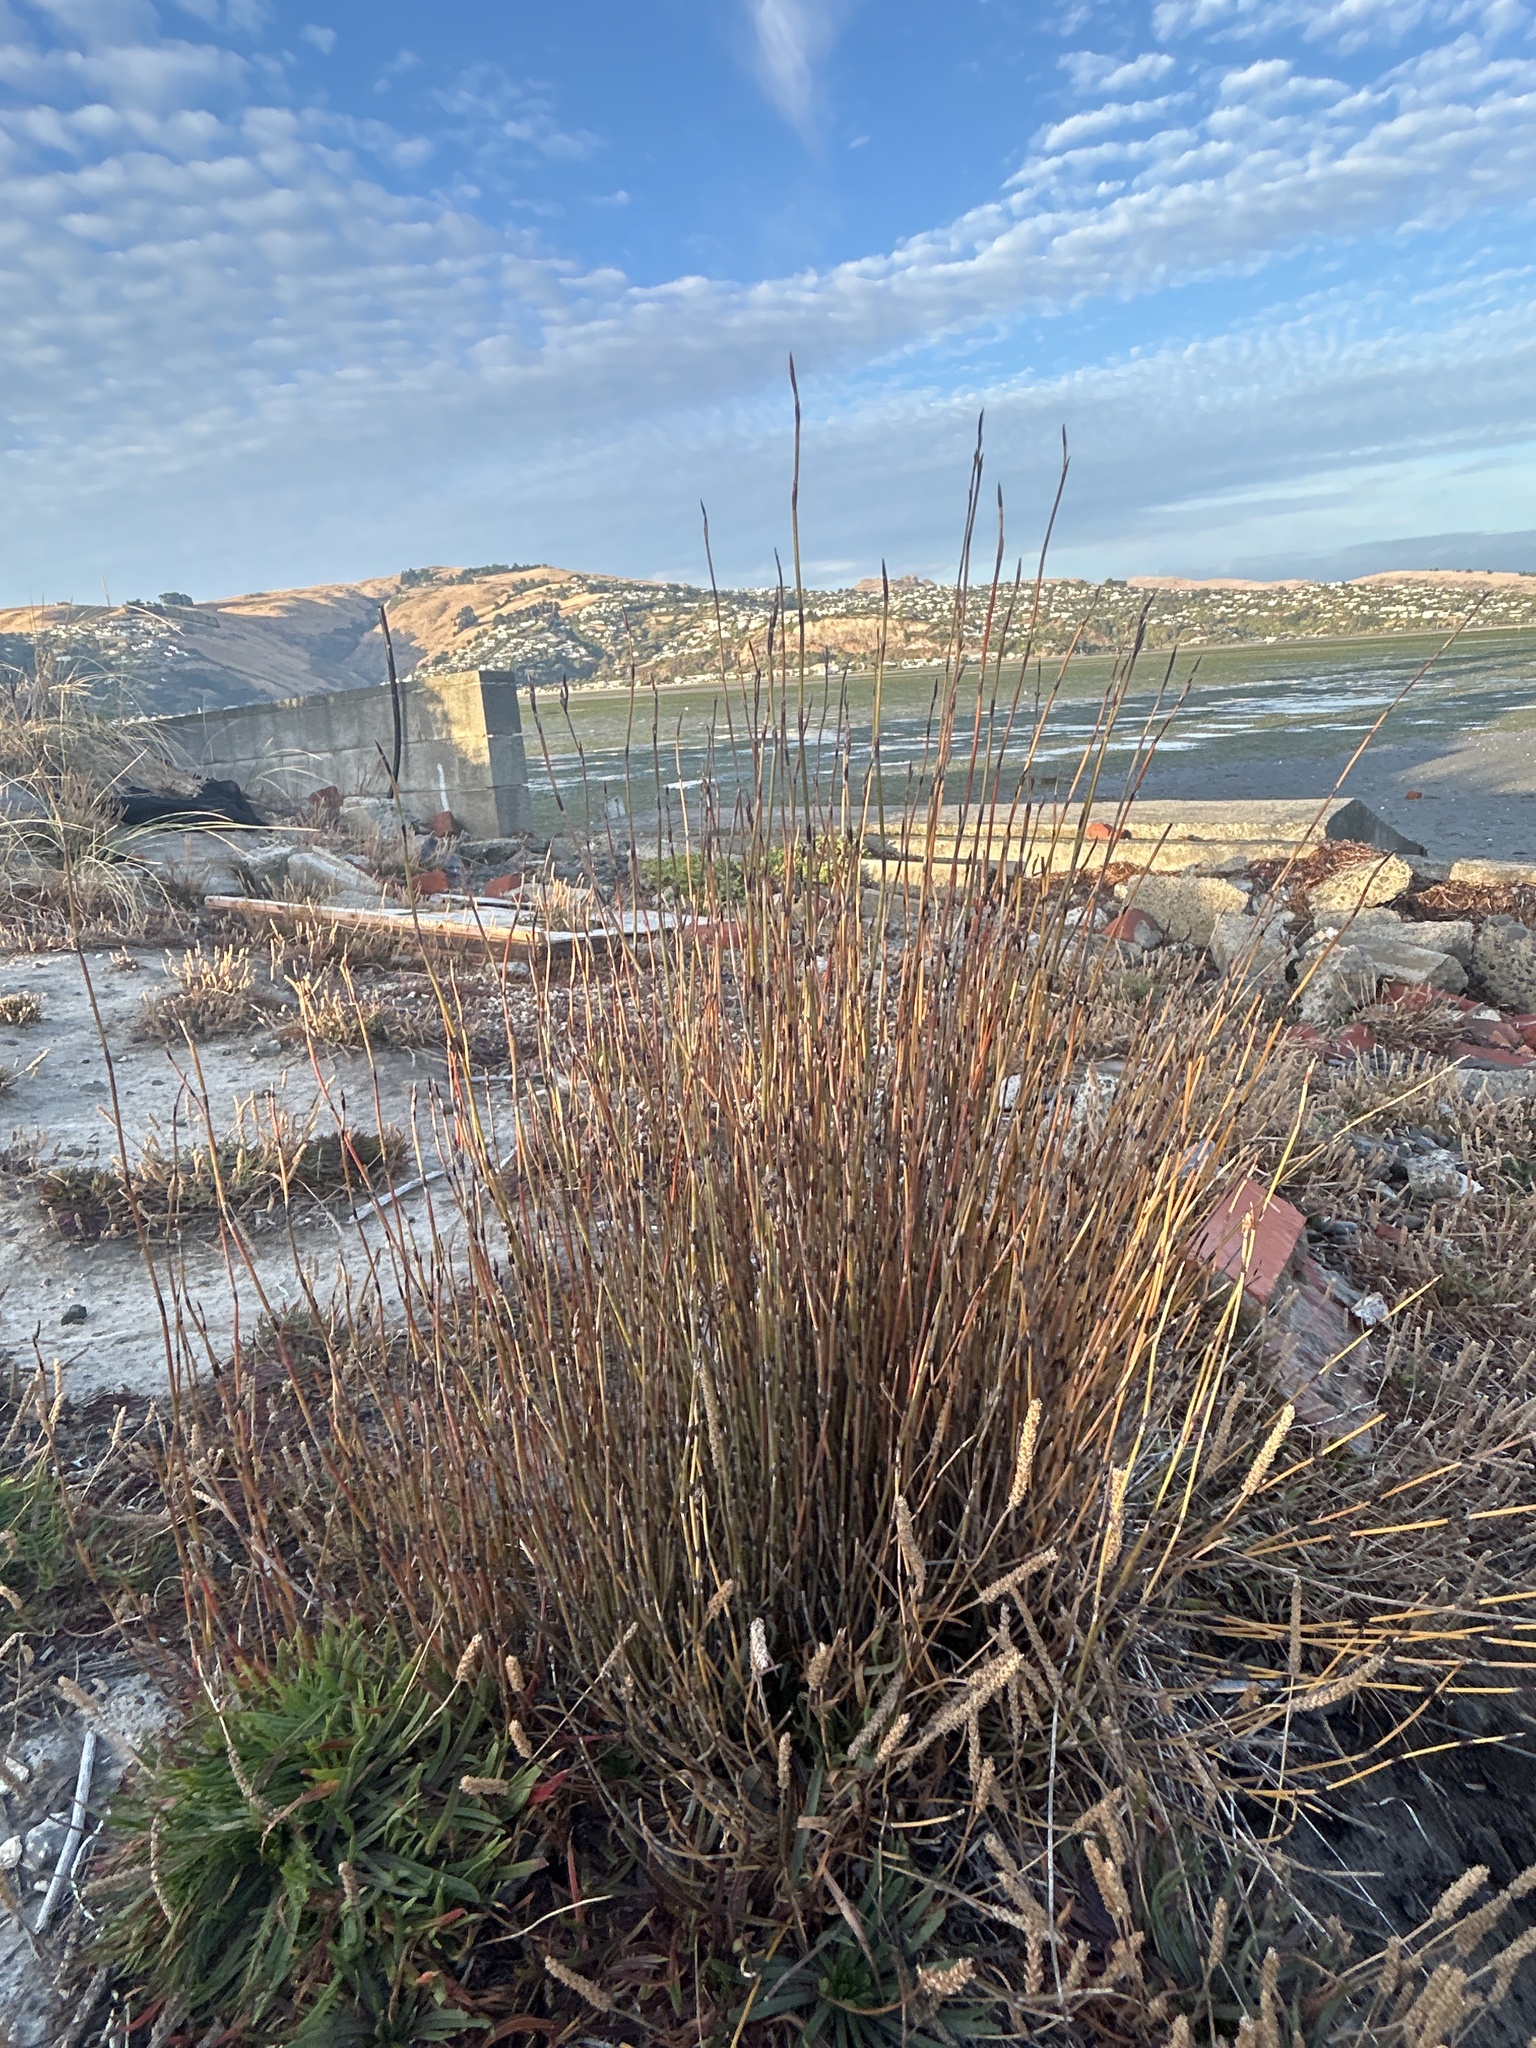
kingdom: Plantae
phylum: Tracheophyta
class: Liliopsida
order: Poales
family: Restionaceae
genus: Apodasmia
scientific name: Apodasmia similis
